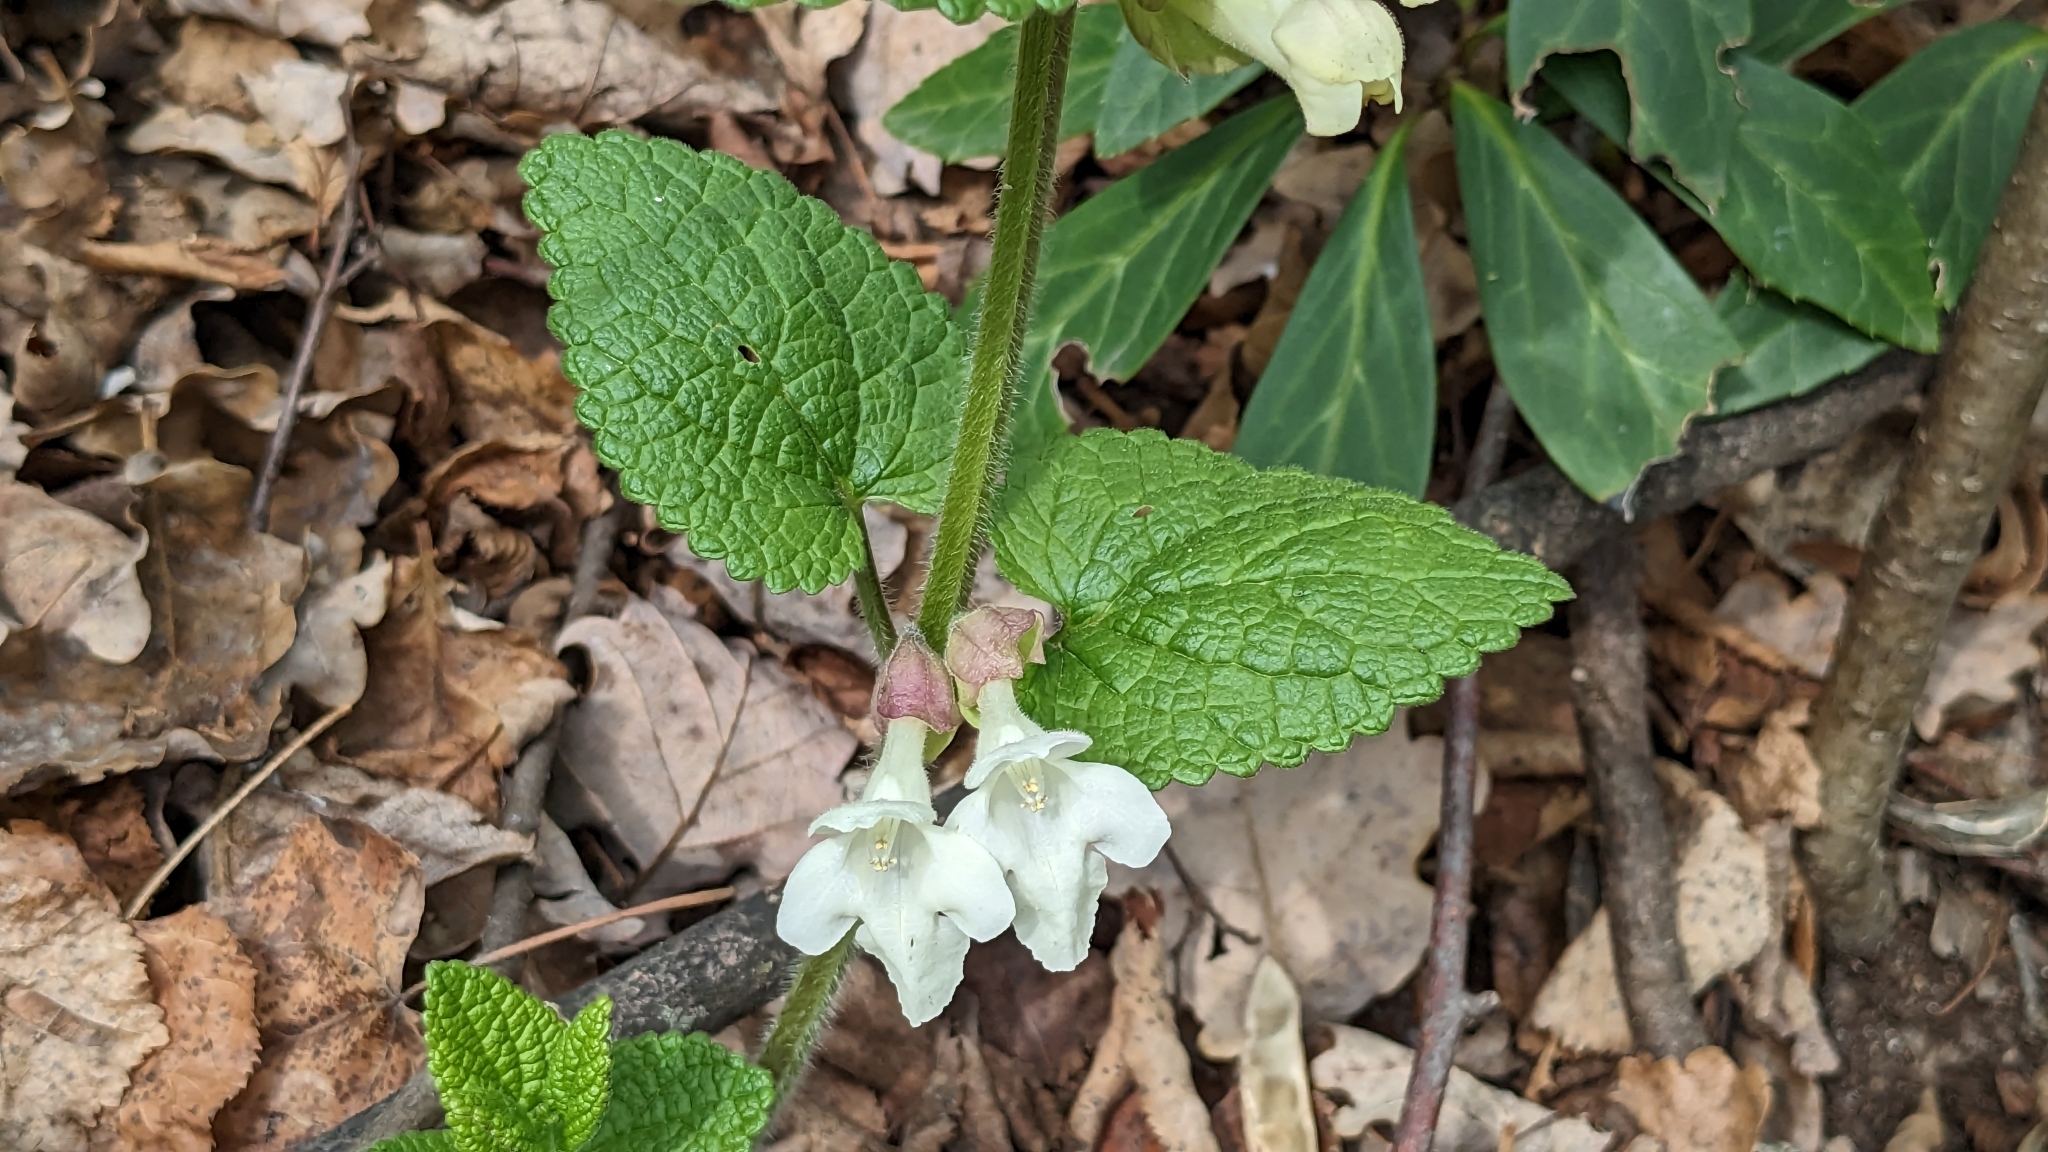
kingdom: Plantae
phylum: Tracheophyta
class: Magnoliopsida
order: Lamiales
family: Lamiaceae
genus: Melittis
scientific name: Melittis melissophyllum
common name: Bastard balm
